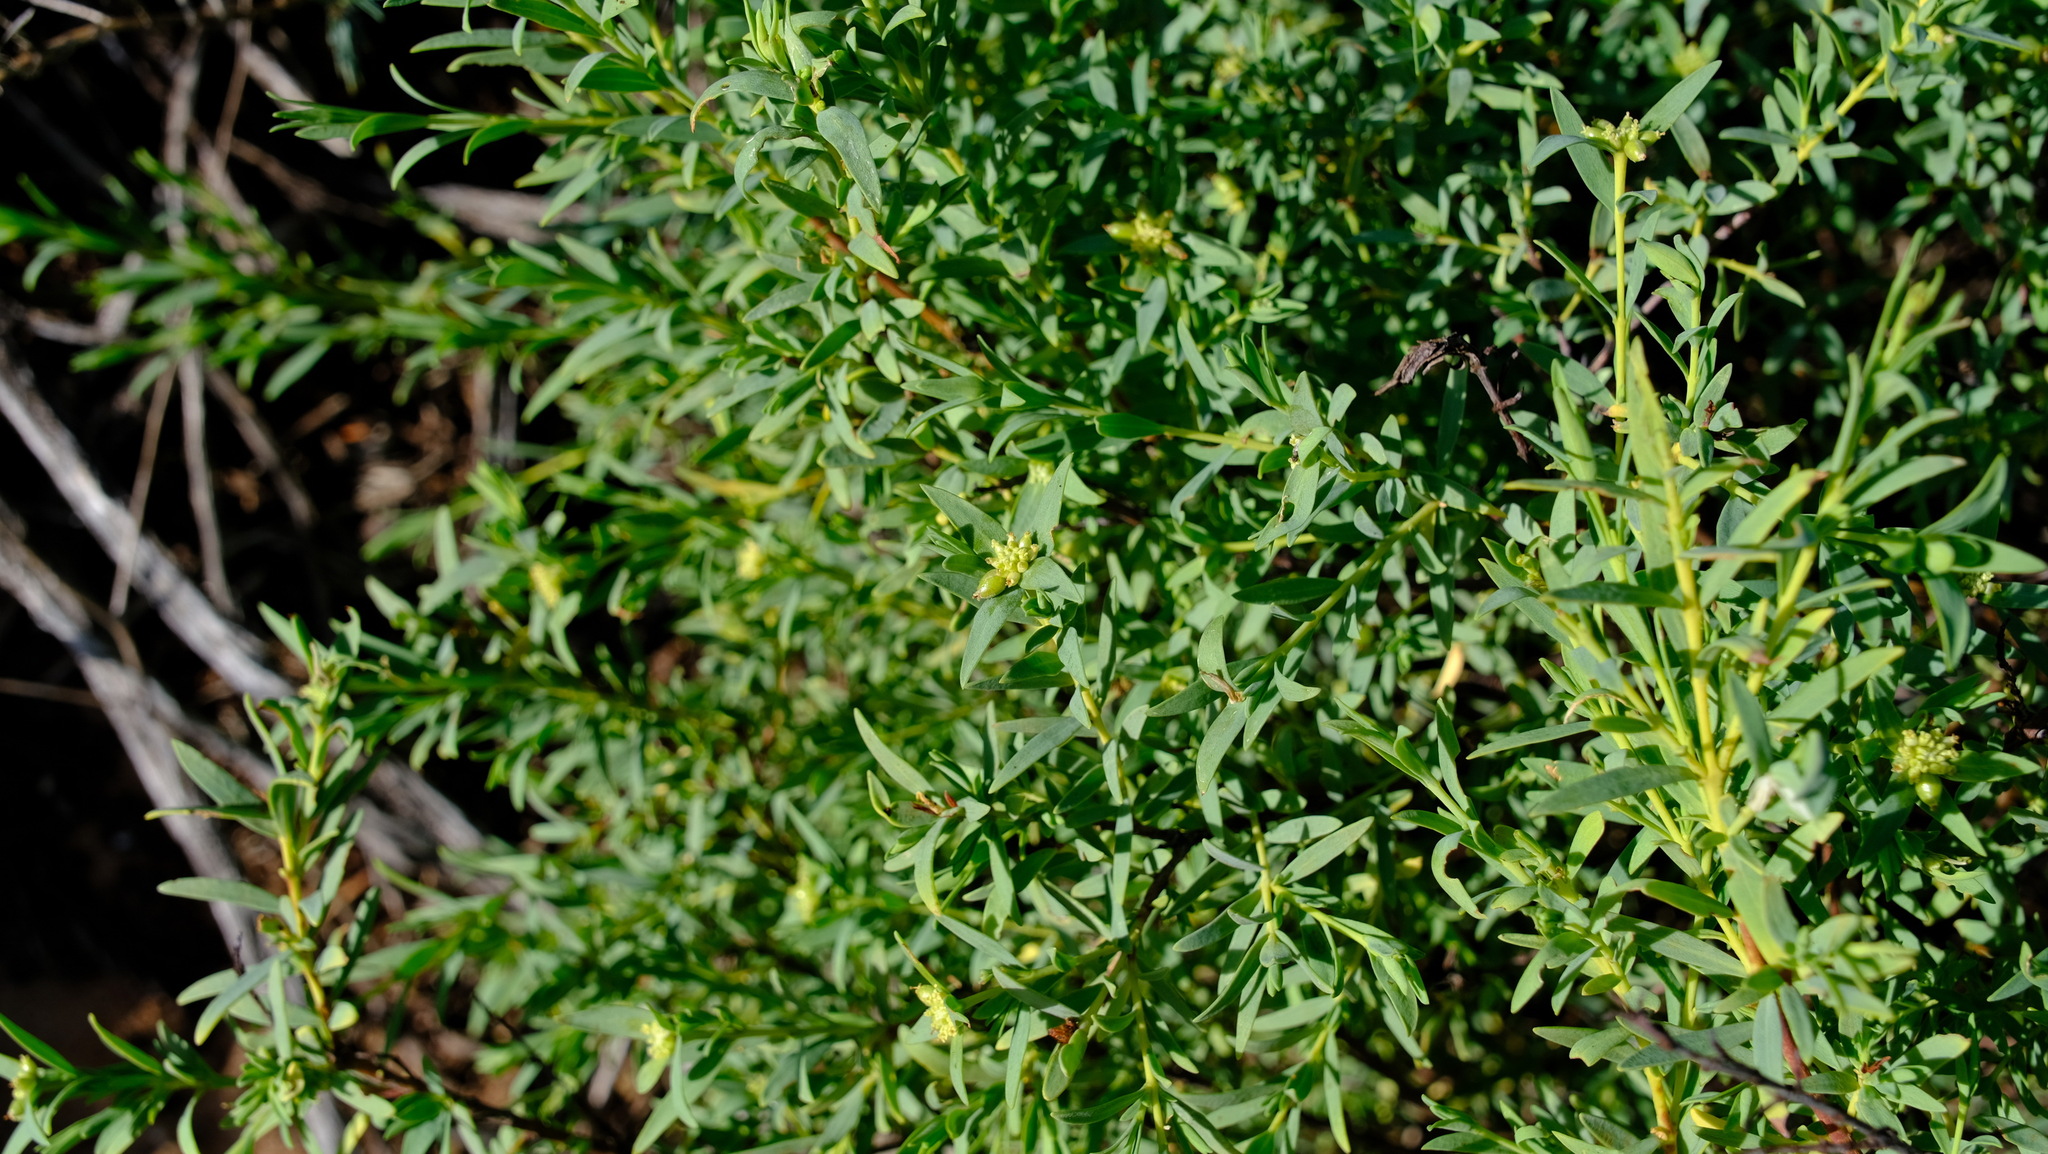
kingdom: Plantae
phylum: Tracheophyta
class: Magnoliopsida
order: Malvales
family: Thymelaeaceae
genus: Pimelea
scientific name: Pimelea microcephala
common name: Mallee riceflower
